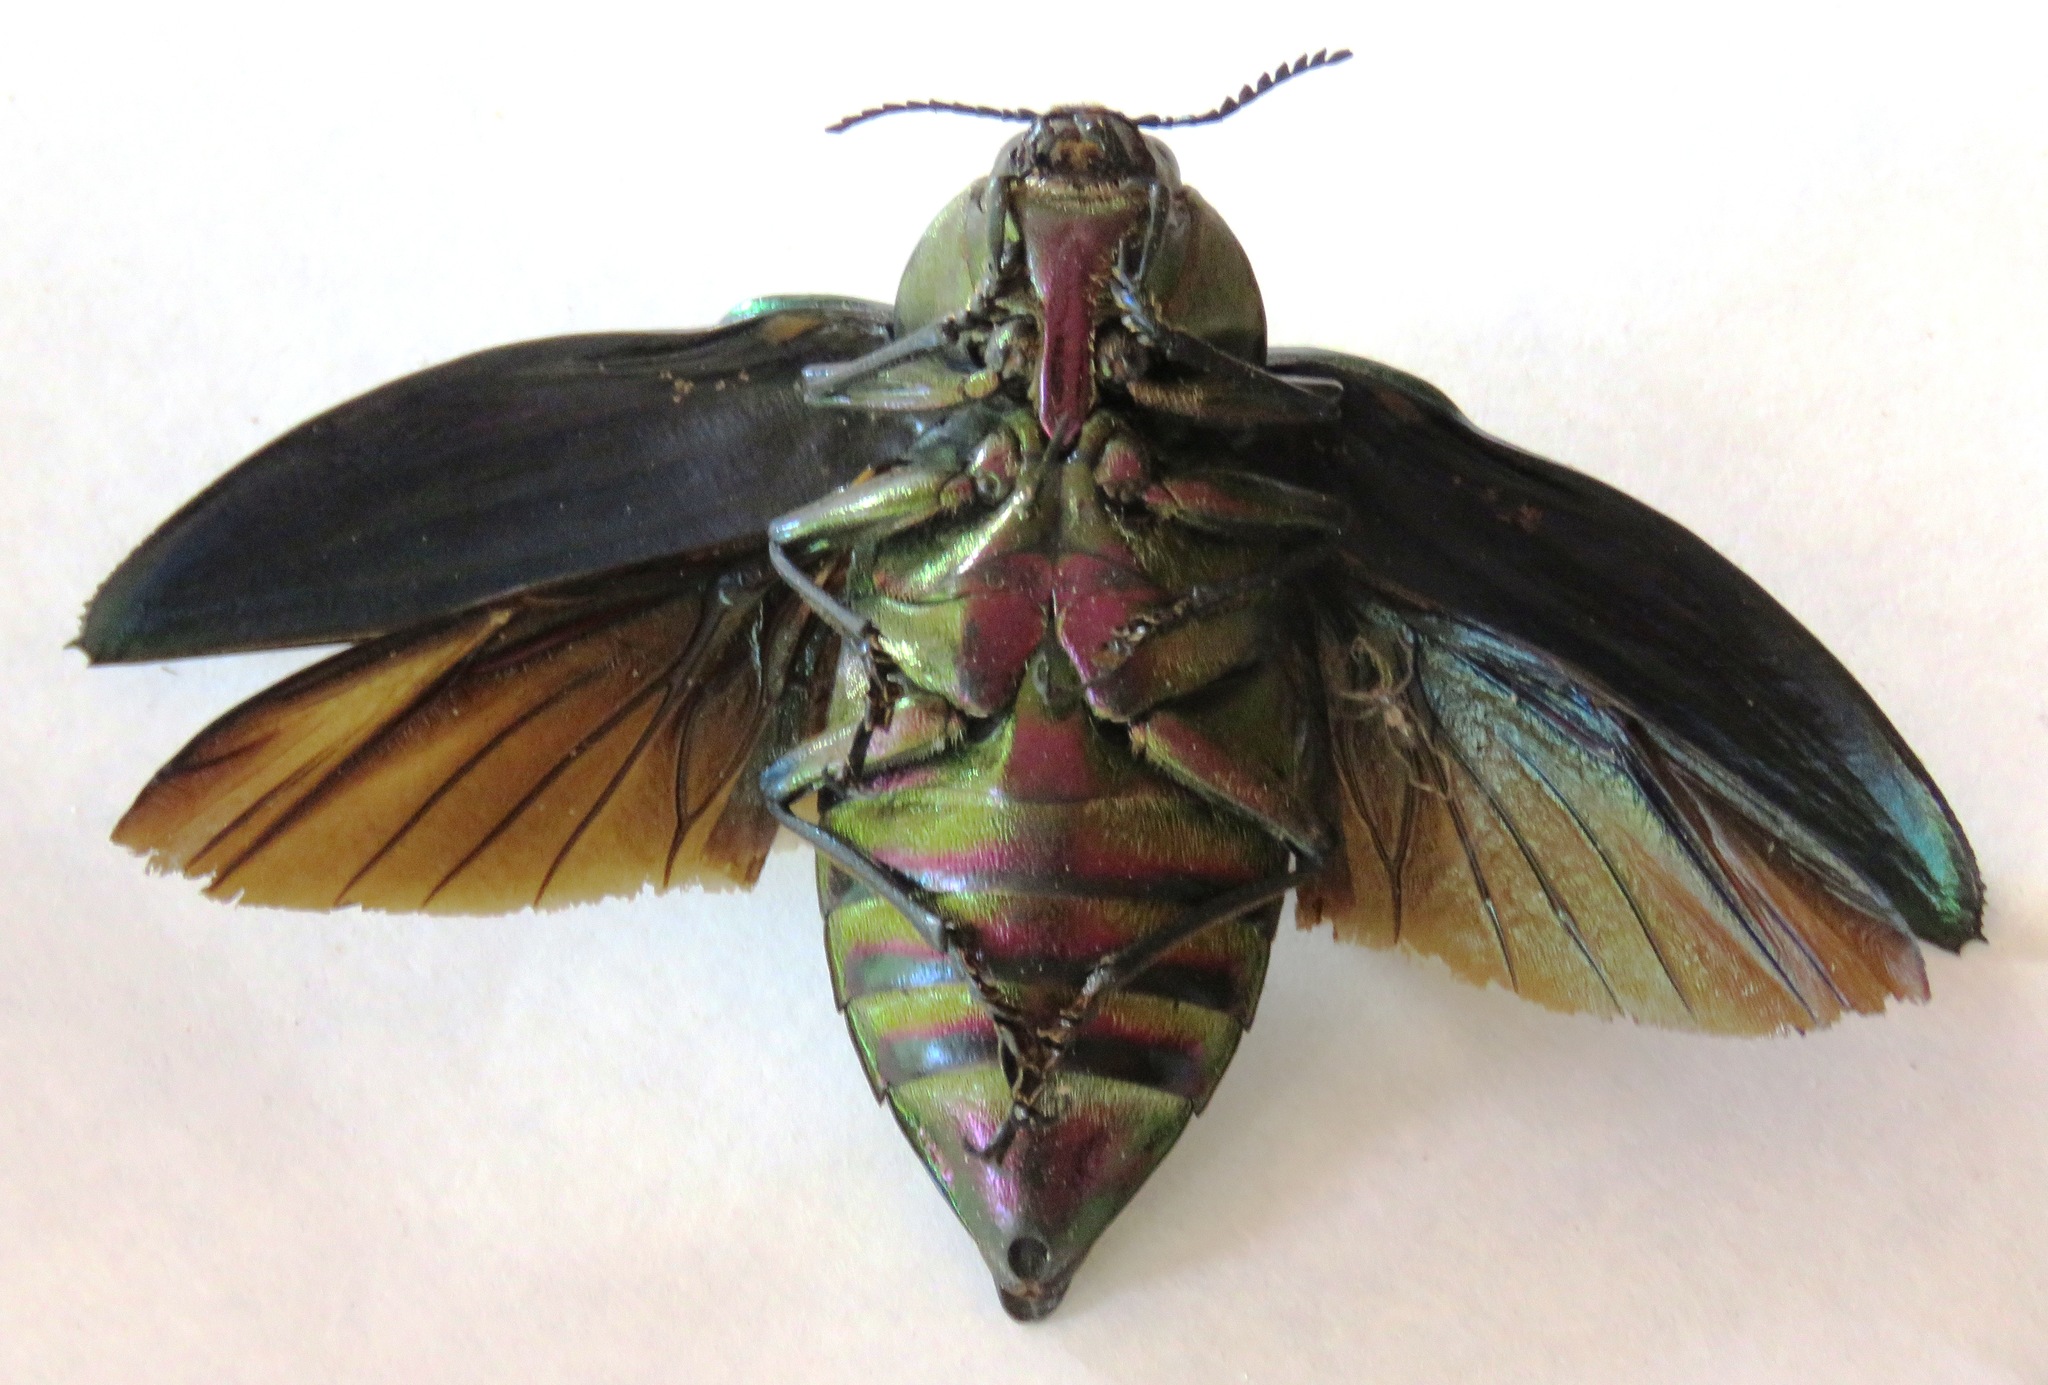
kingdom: Animalia
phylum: Arthropoda
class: Insecta
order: Coleoptera
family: Buprestidae
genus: Euchroma
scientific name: Euchroma giganteum
